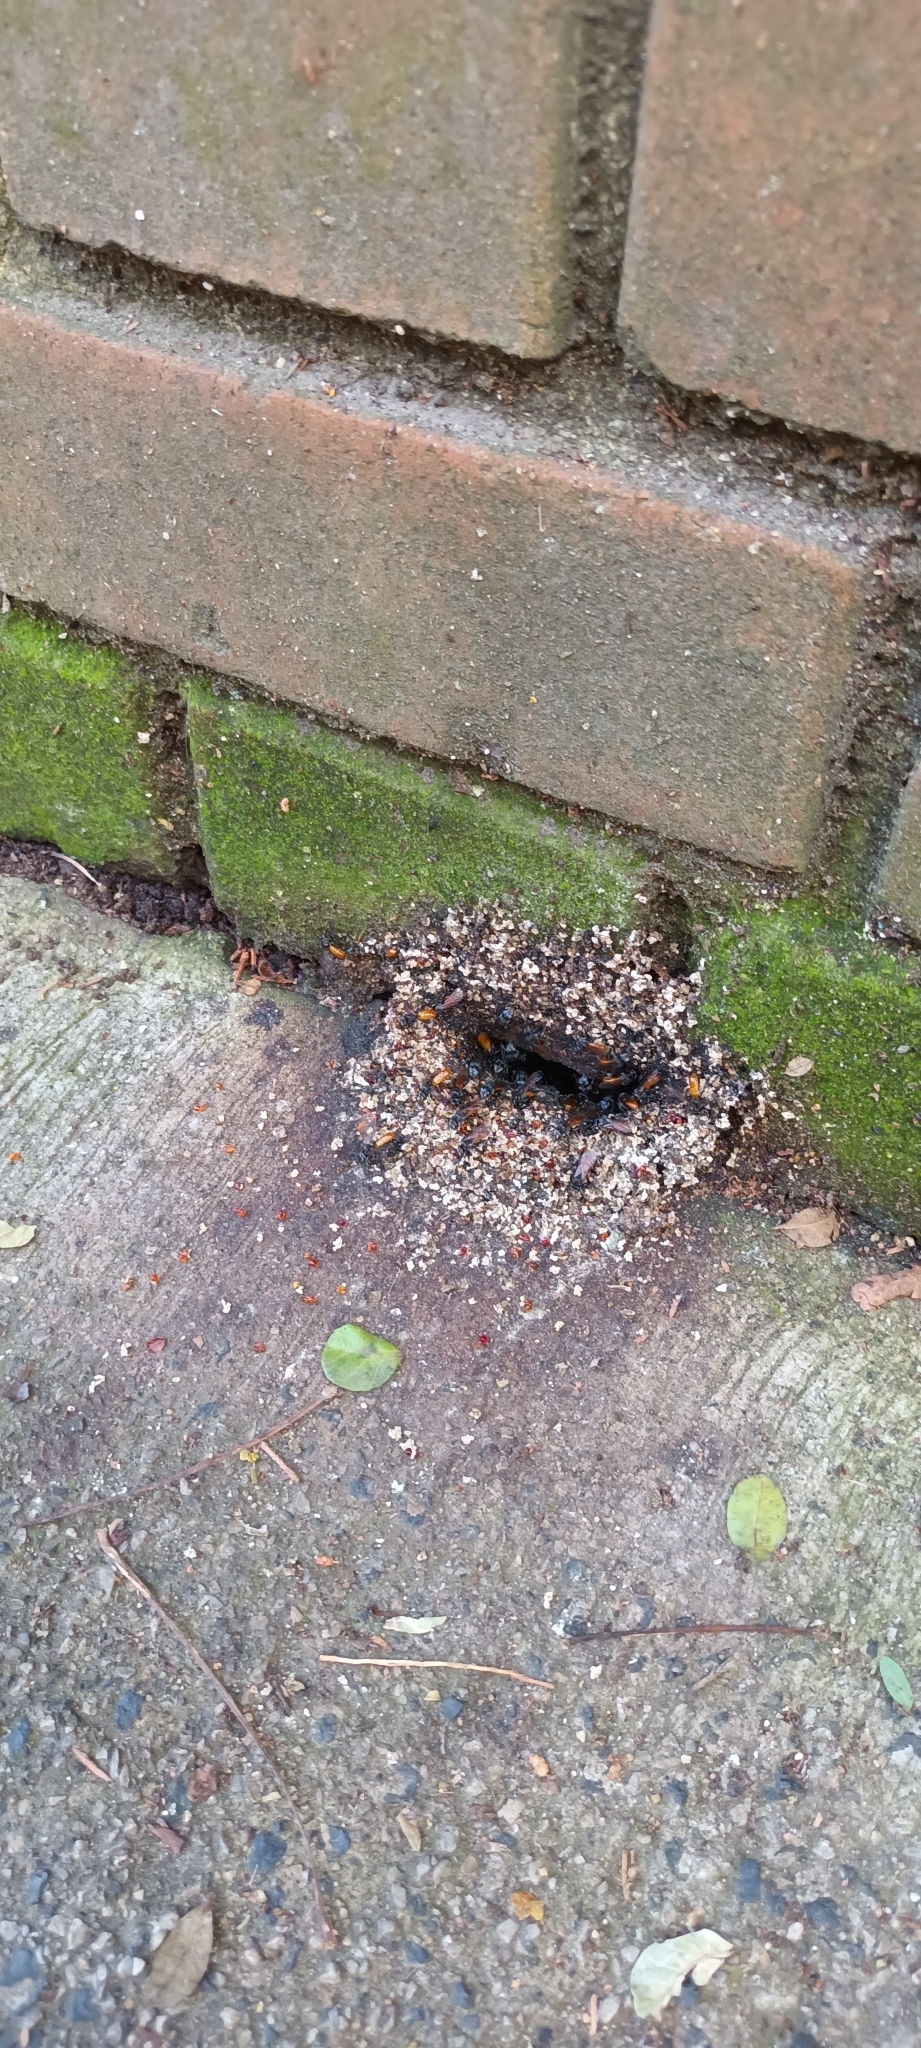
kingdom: Animalia
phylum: Arthropoda
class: Insecta
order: Hymenoptera
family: Apidae
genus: Trigona
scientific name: Trigona fulviventris
